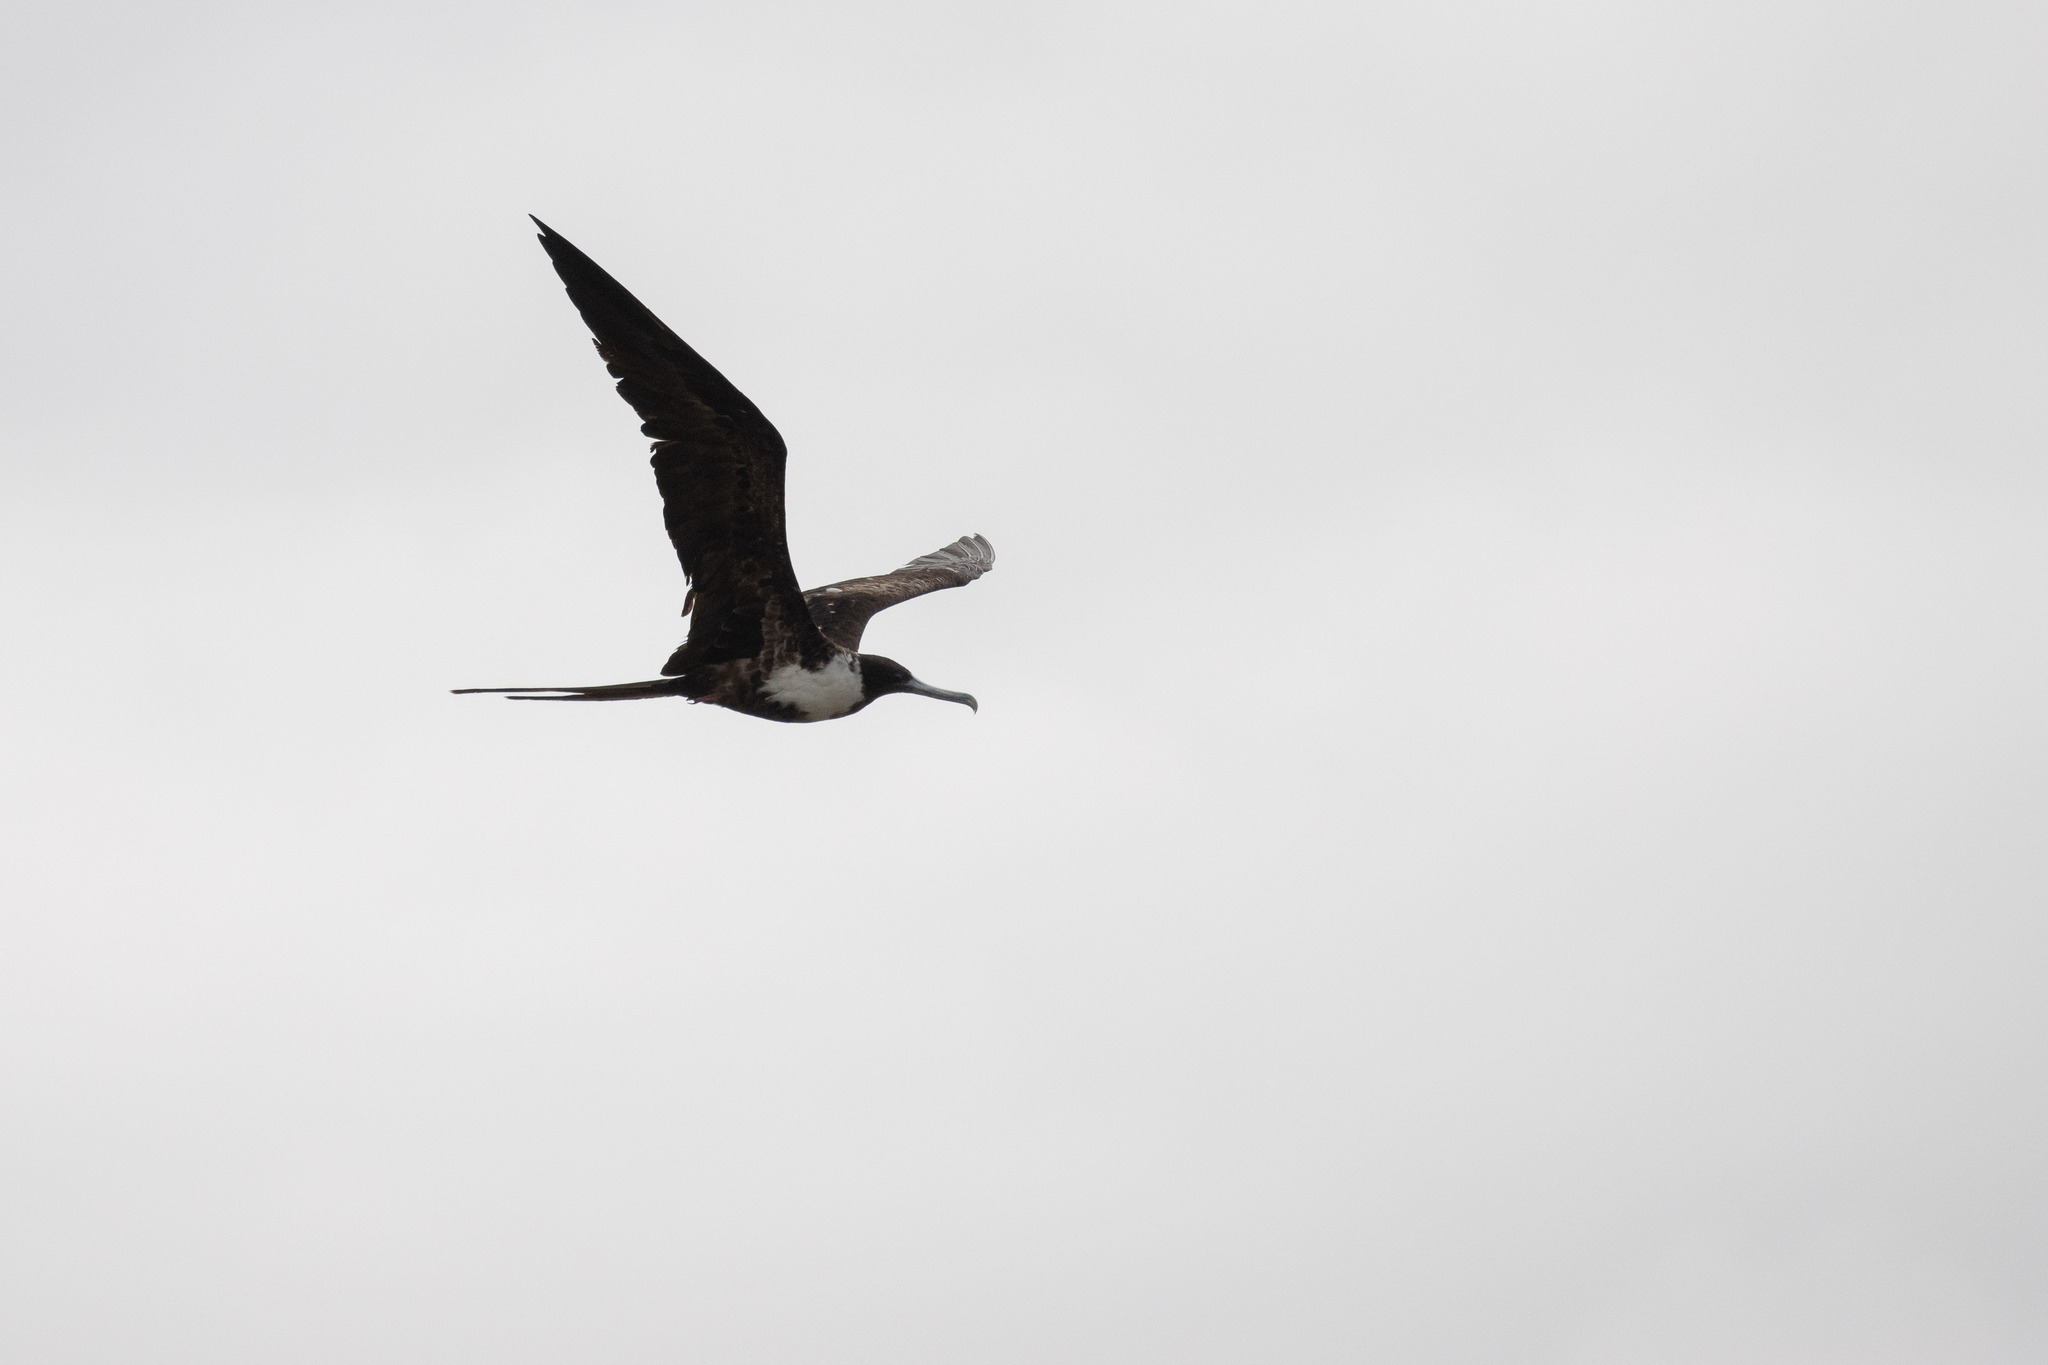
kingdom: Animalia
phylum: Chordata
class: Aves
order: Suliformes
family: Fregatidae
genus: Fregata
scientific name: Fregata magnificens
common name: Magnificent frigatebird
